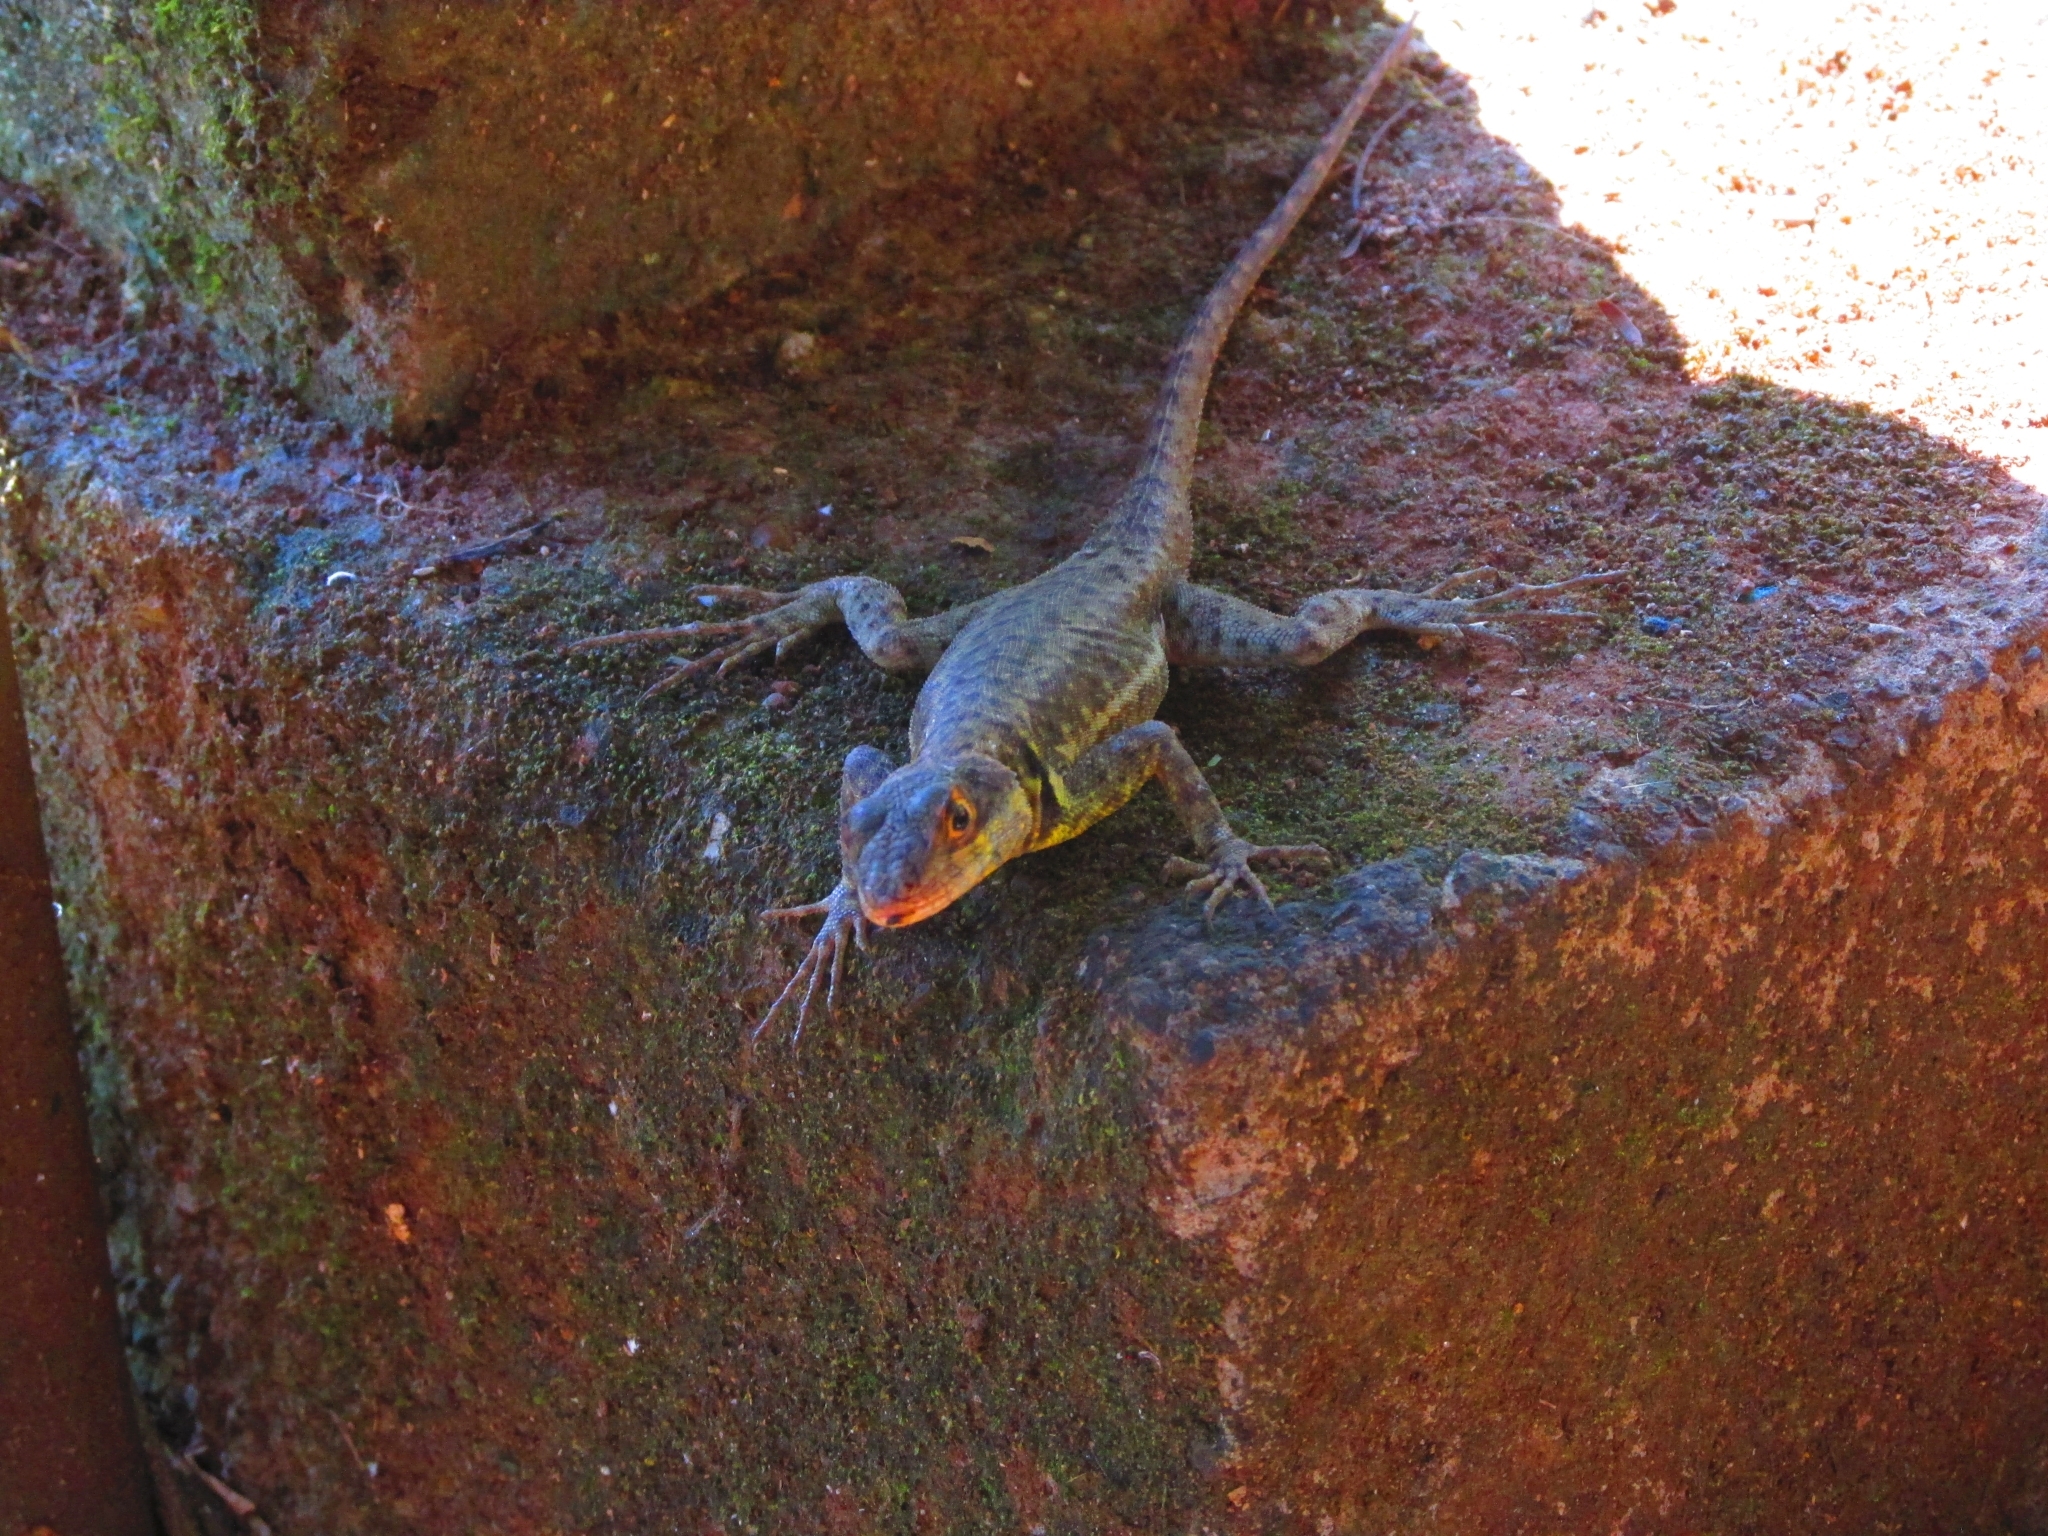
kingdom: Animalia
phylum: Chordata
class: Squamata
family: Tropiduridae
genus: Tropidurus
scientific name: Tropidurus catalanensis
